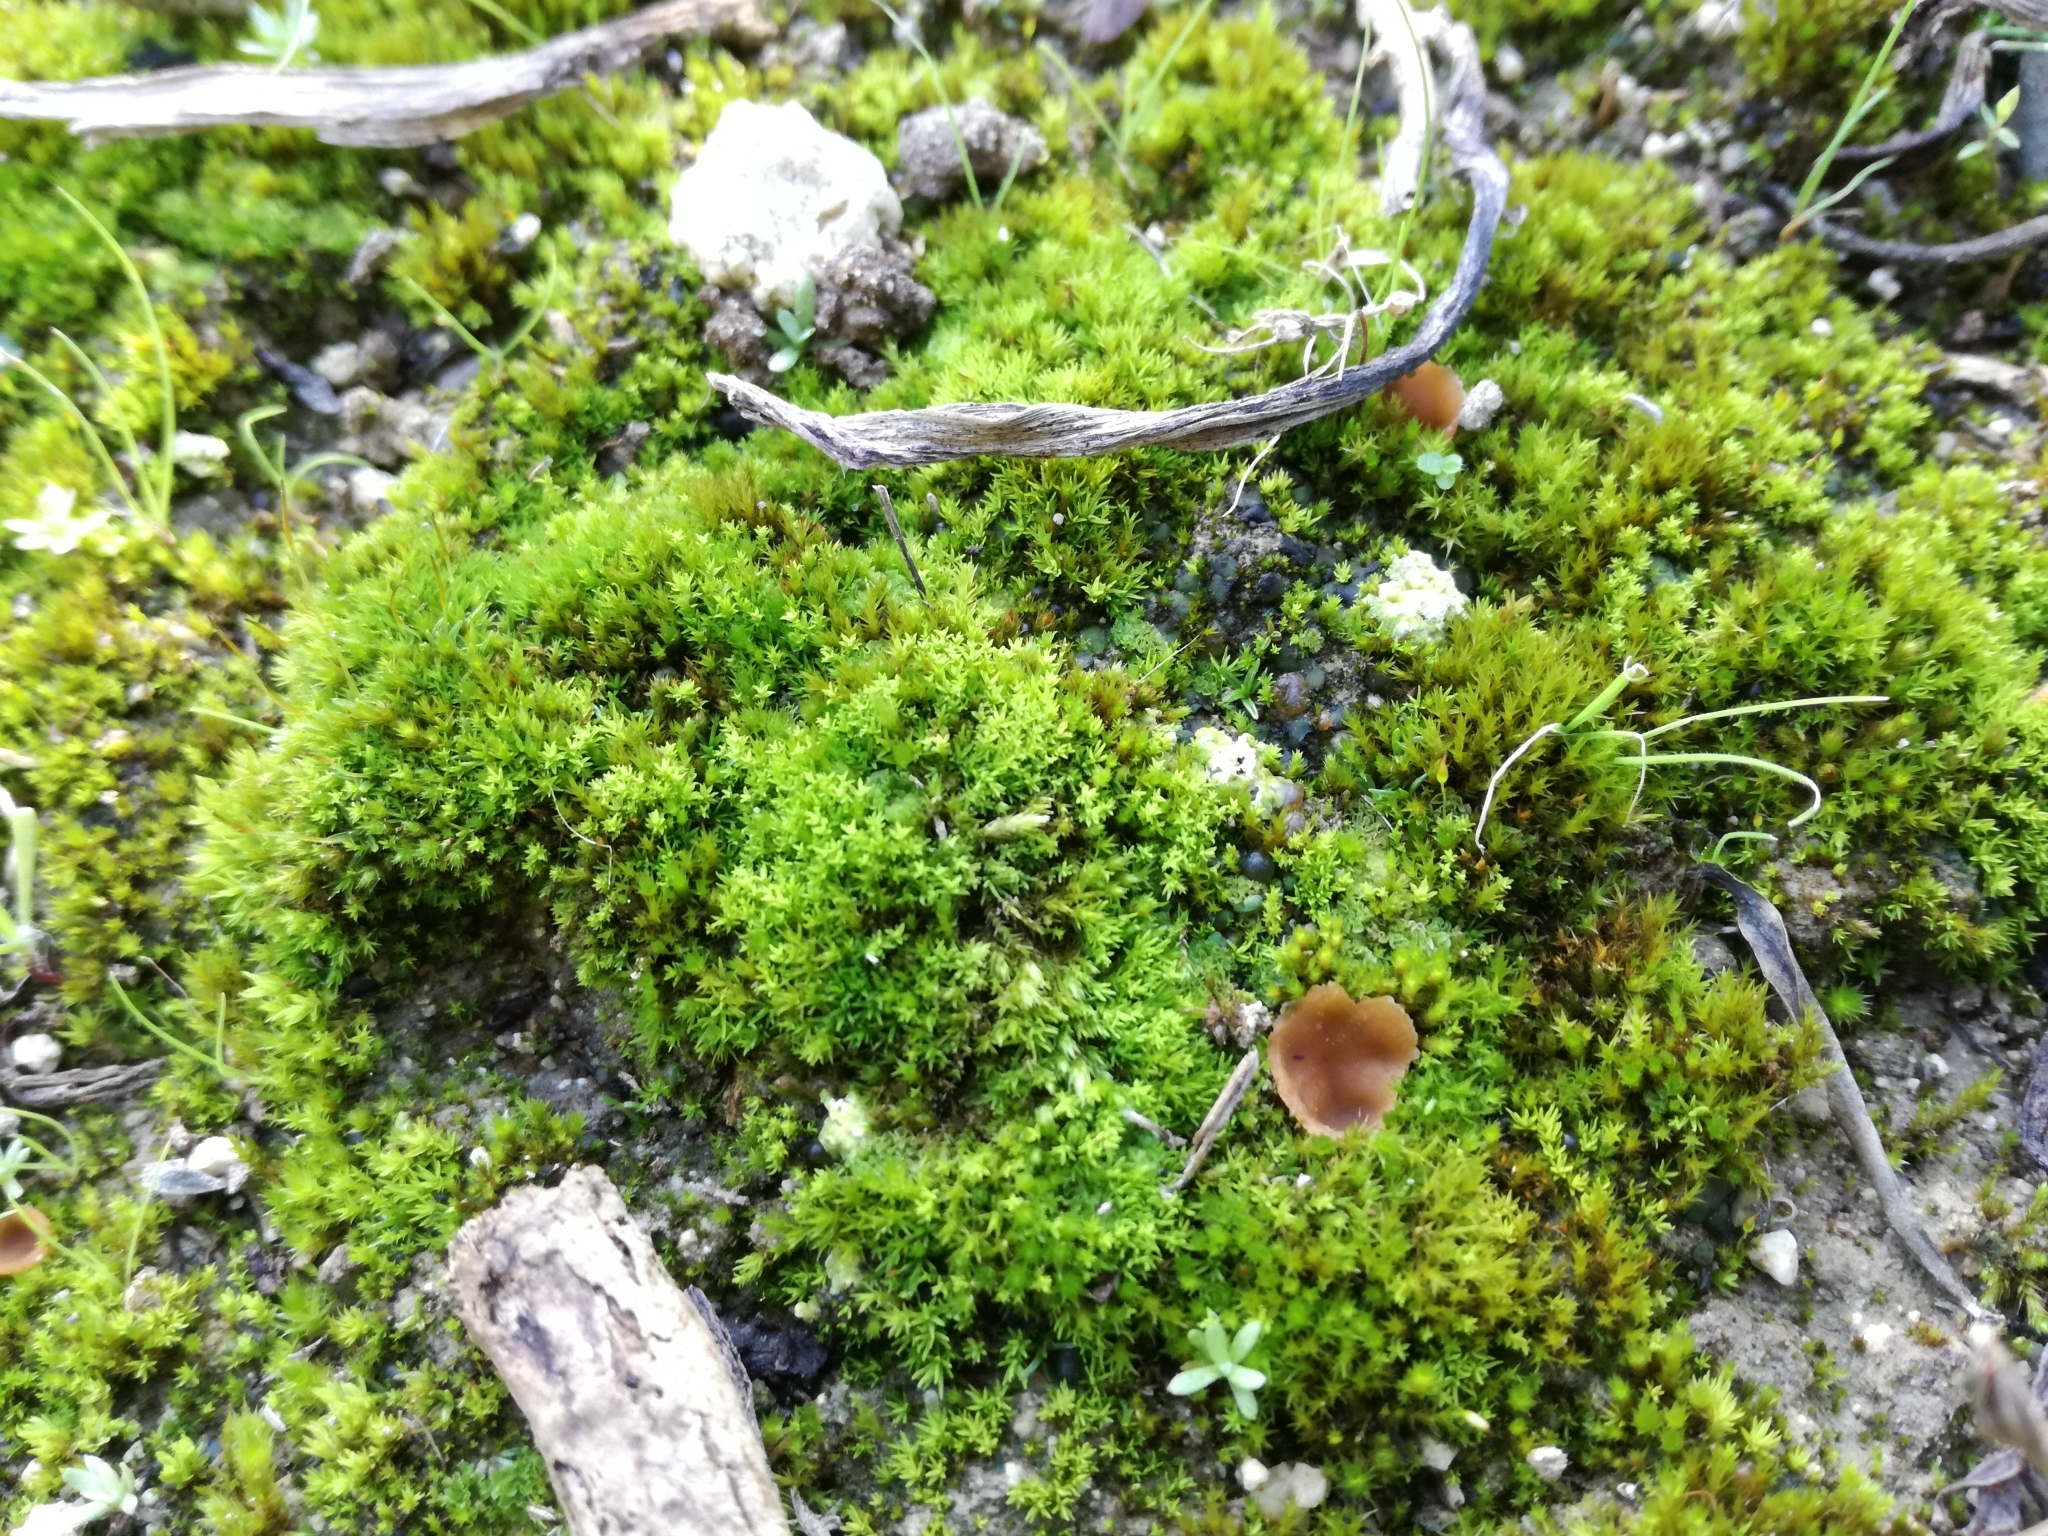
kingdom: Fungi
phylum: Ascomycota
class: Pezizomycetes
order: Pezizales
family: Pyronemataceae
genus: Sepultariella
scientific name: Sepultariella patavina
